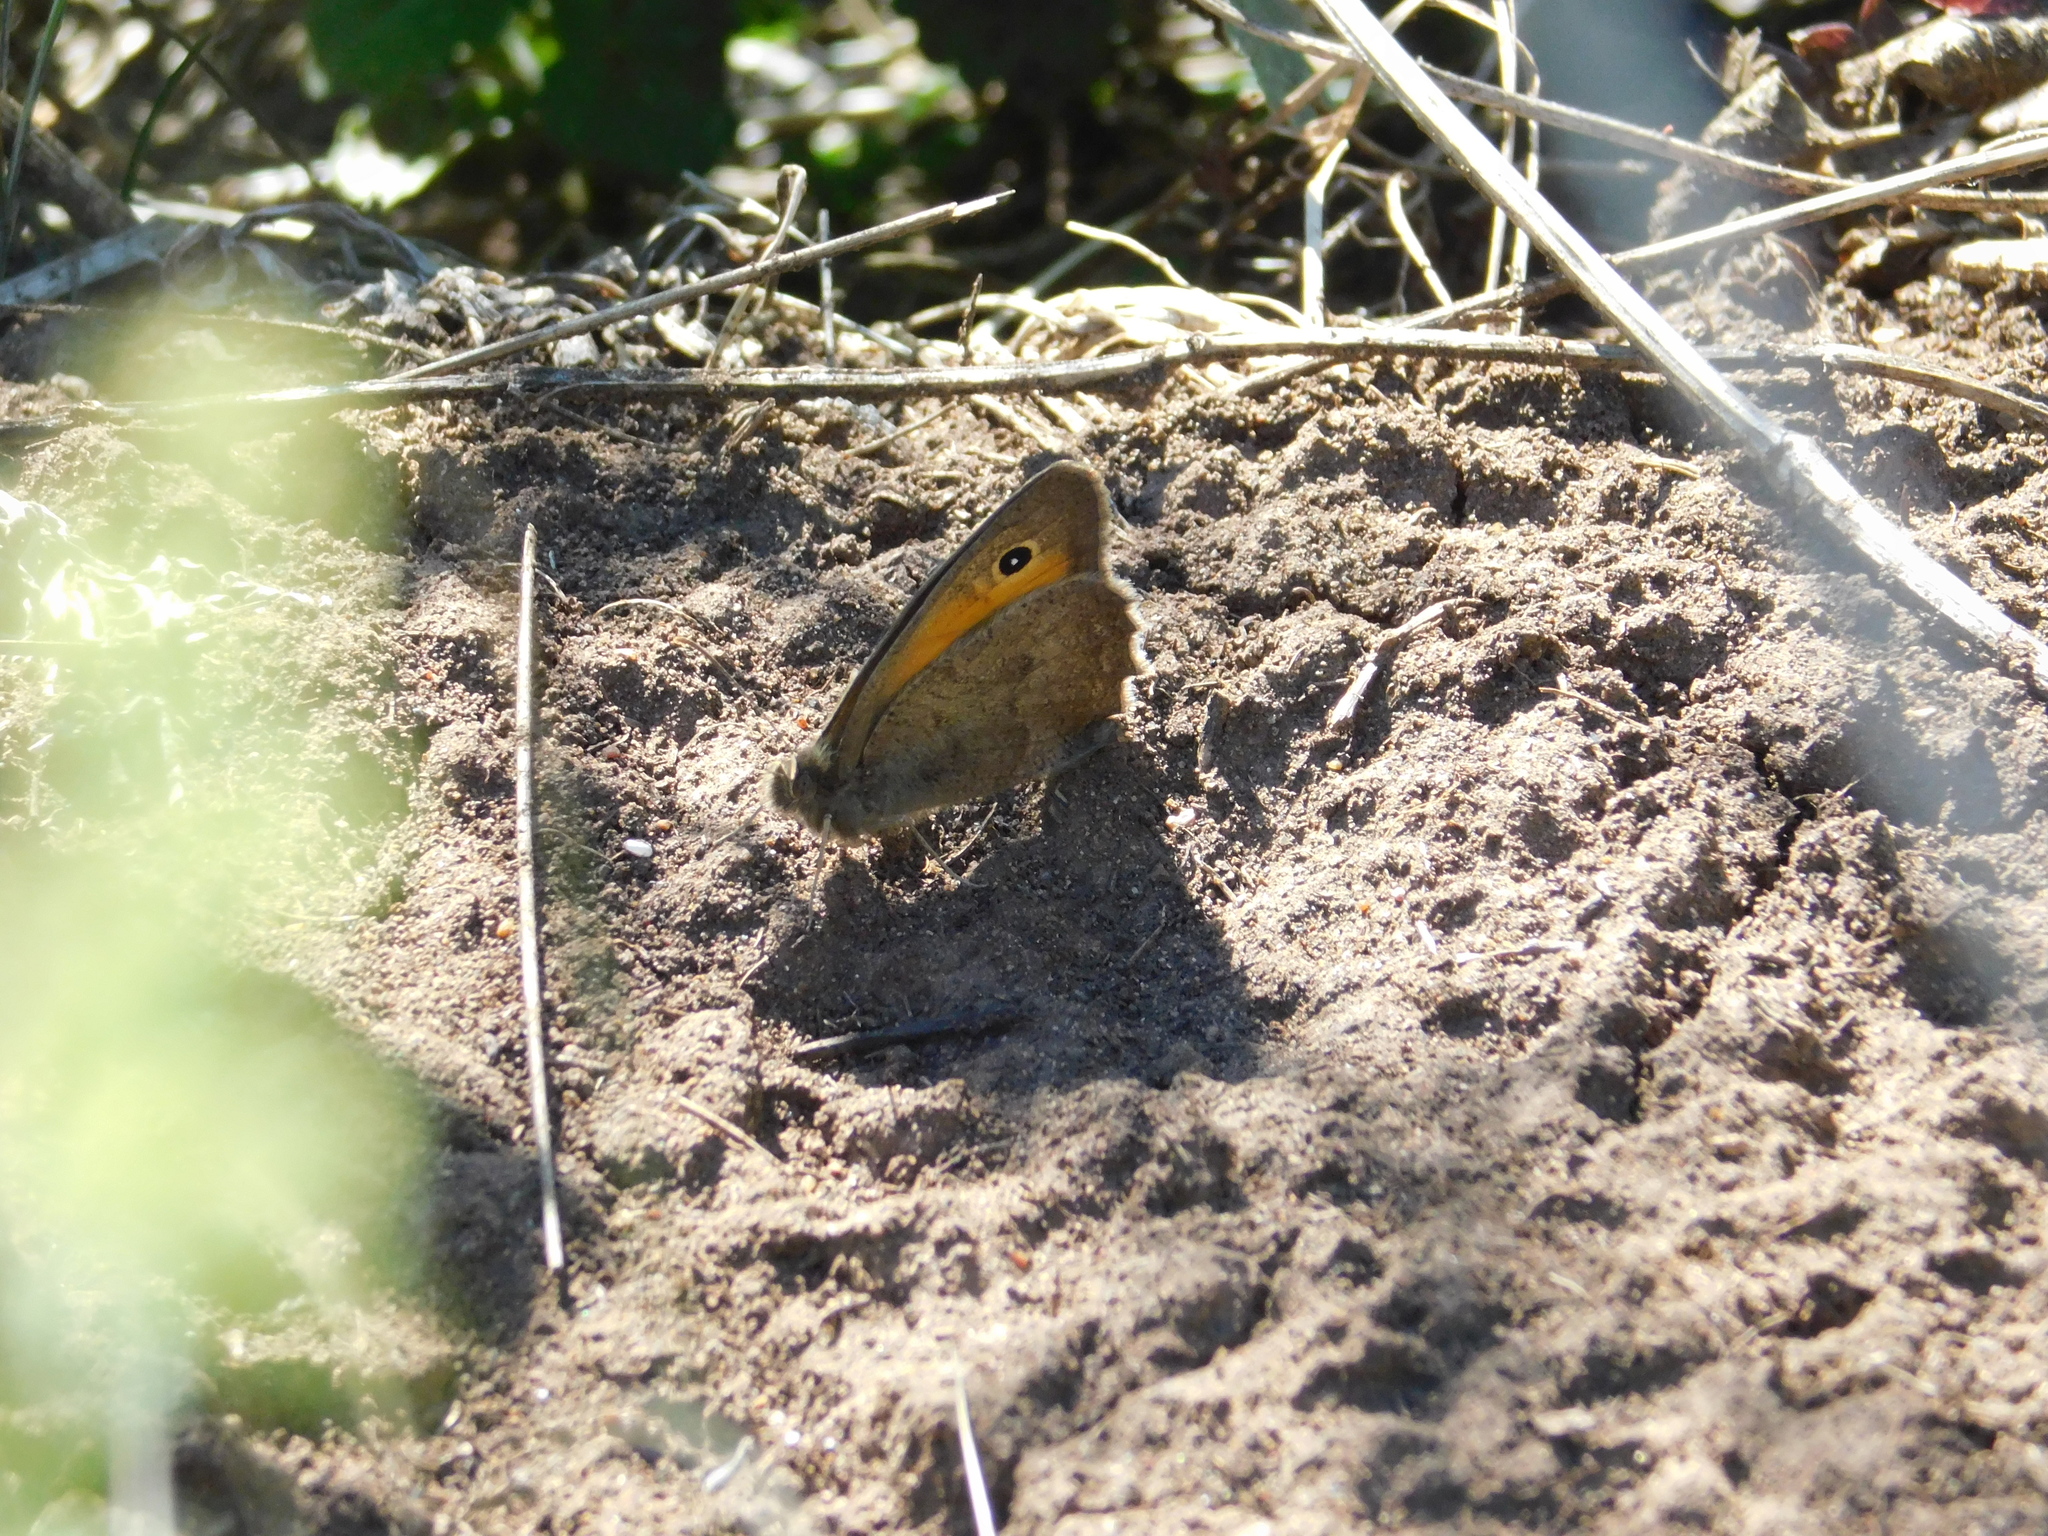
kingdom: Animalia
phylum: Arthropoda
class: Insecta
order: Lepidoptera
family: Nymphalidae
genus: Hyponephele
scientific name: Hyponephele lycaon
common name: Dusky meadow brown
